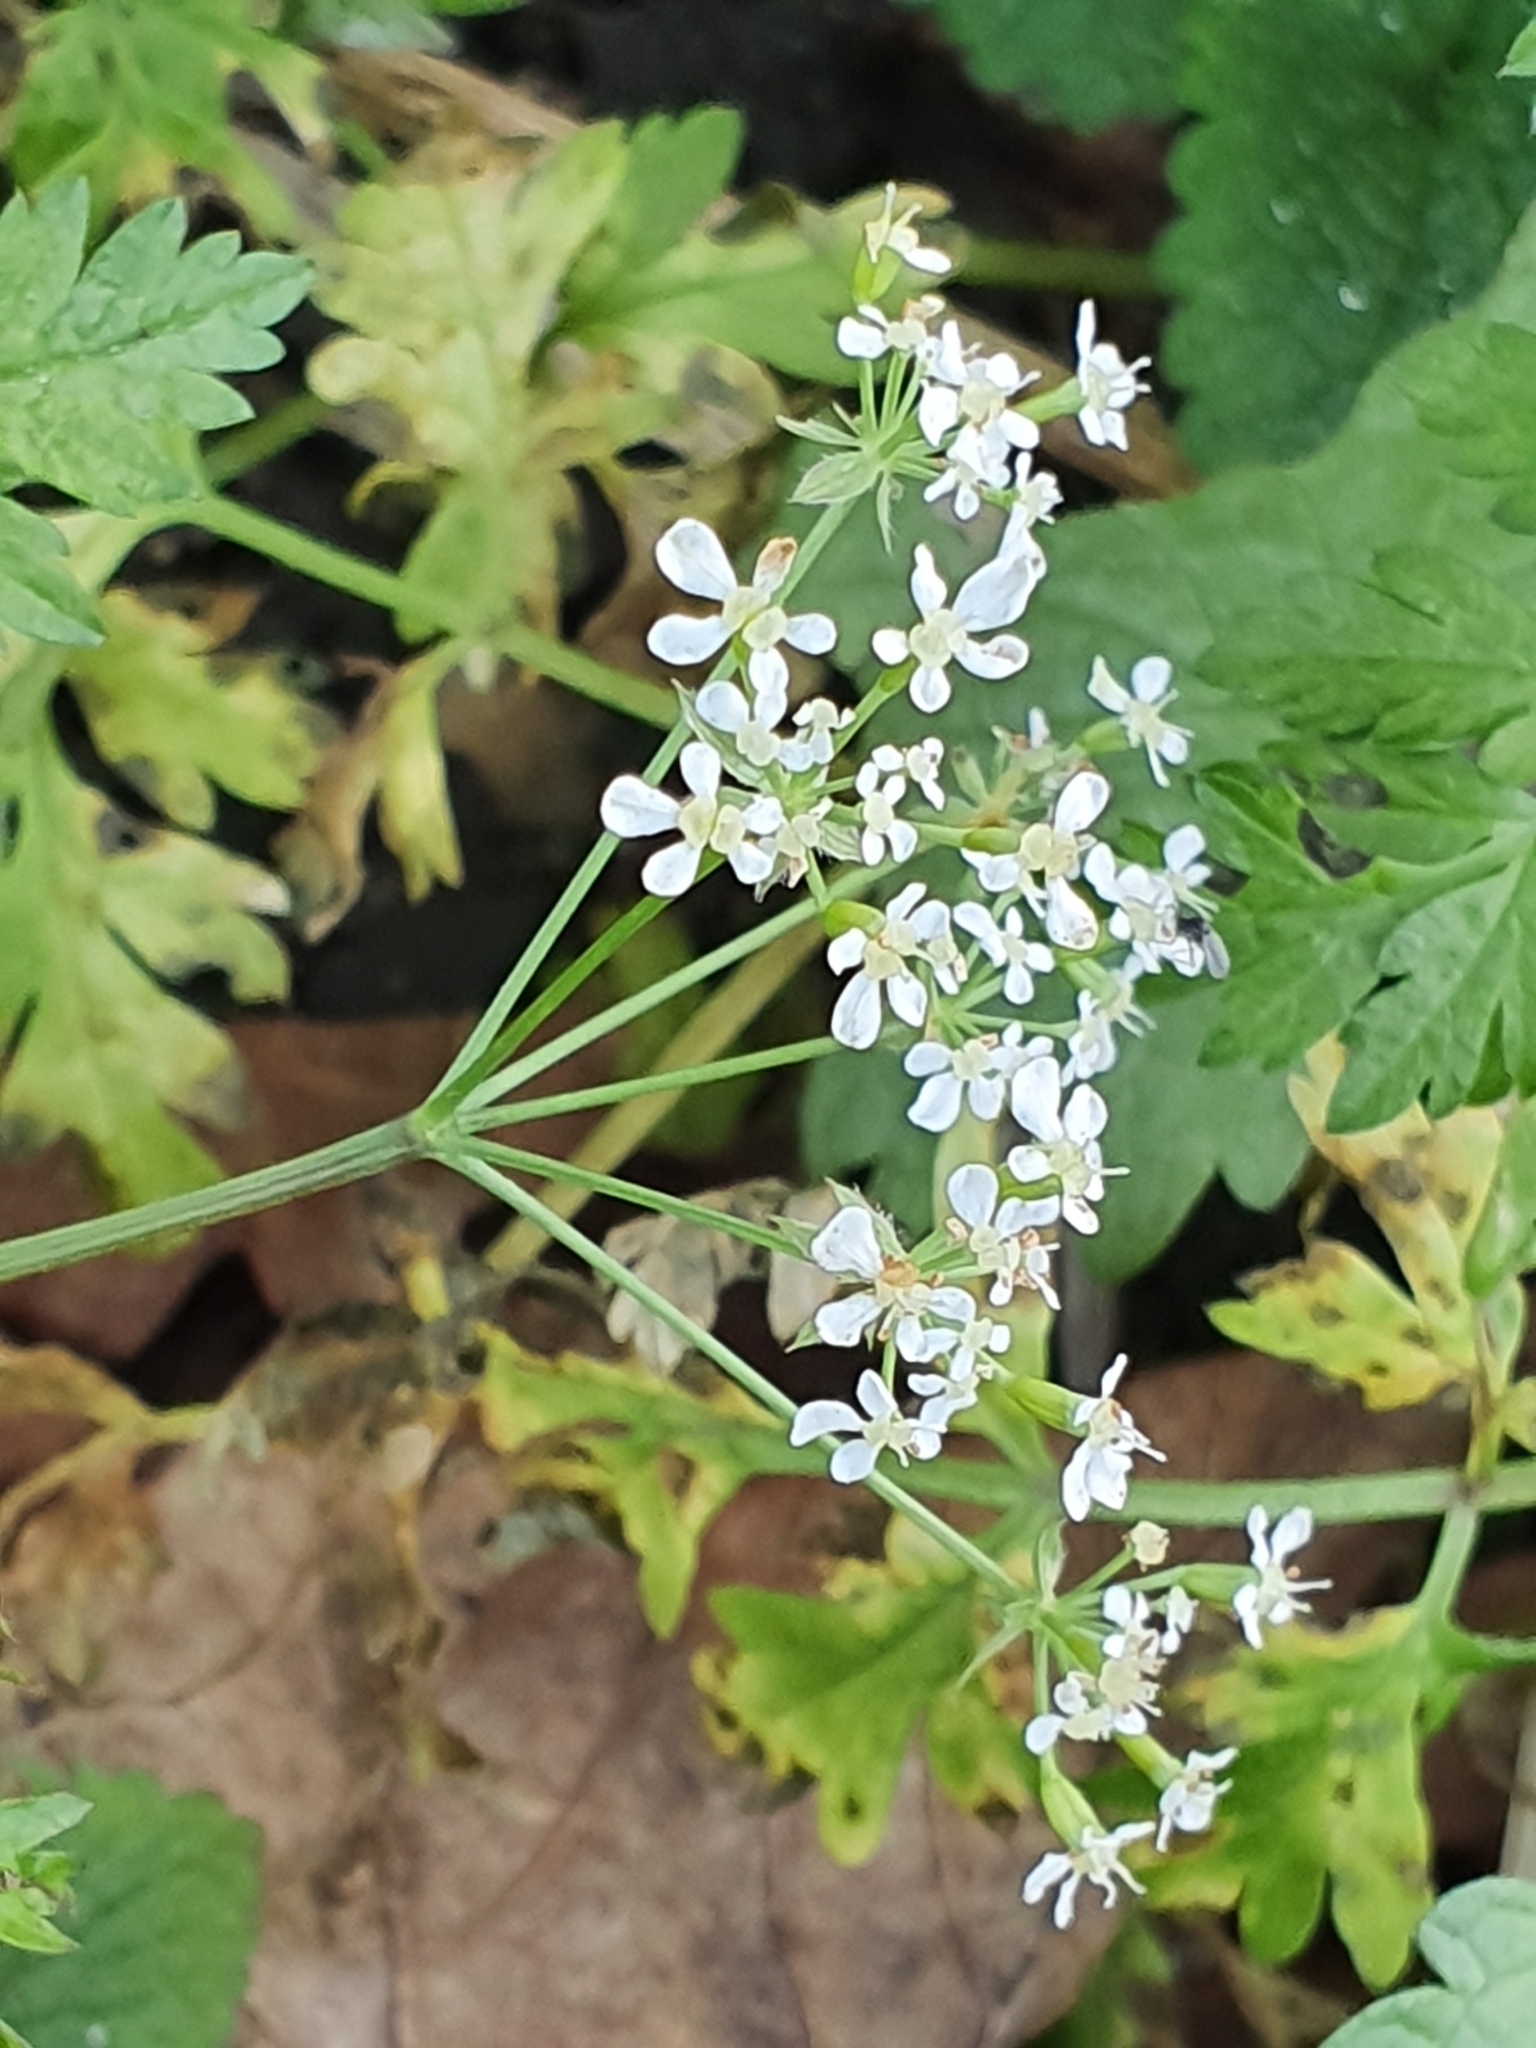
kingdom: Plantae
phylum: Tracheophyta
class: Magnoliopsida
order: Apiales
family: Apiaceae
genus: Anthriscus
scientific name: Anthriscus sylvestris
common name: Cow parsley
